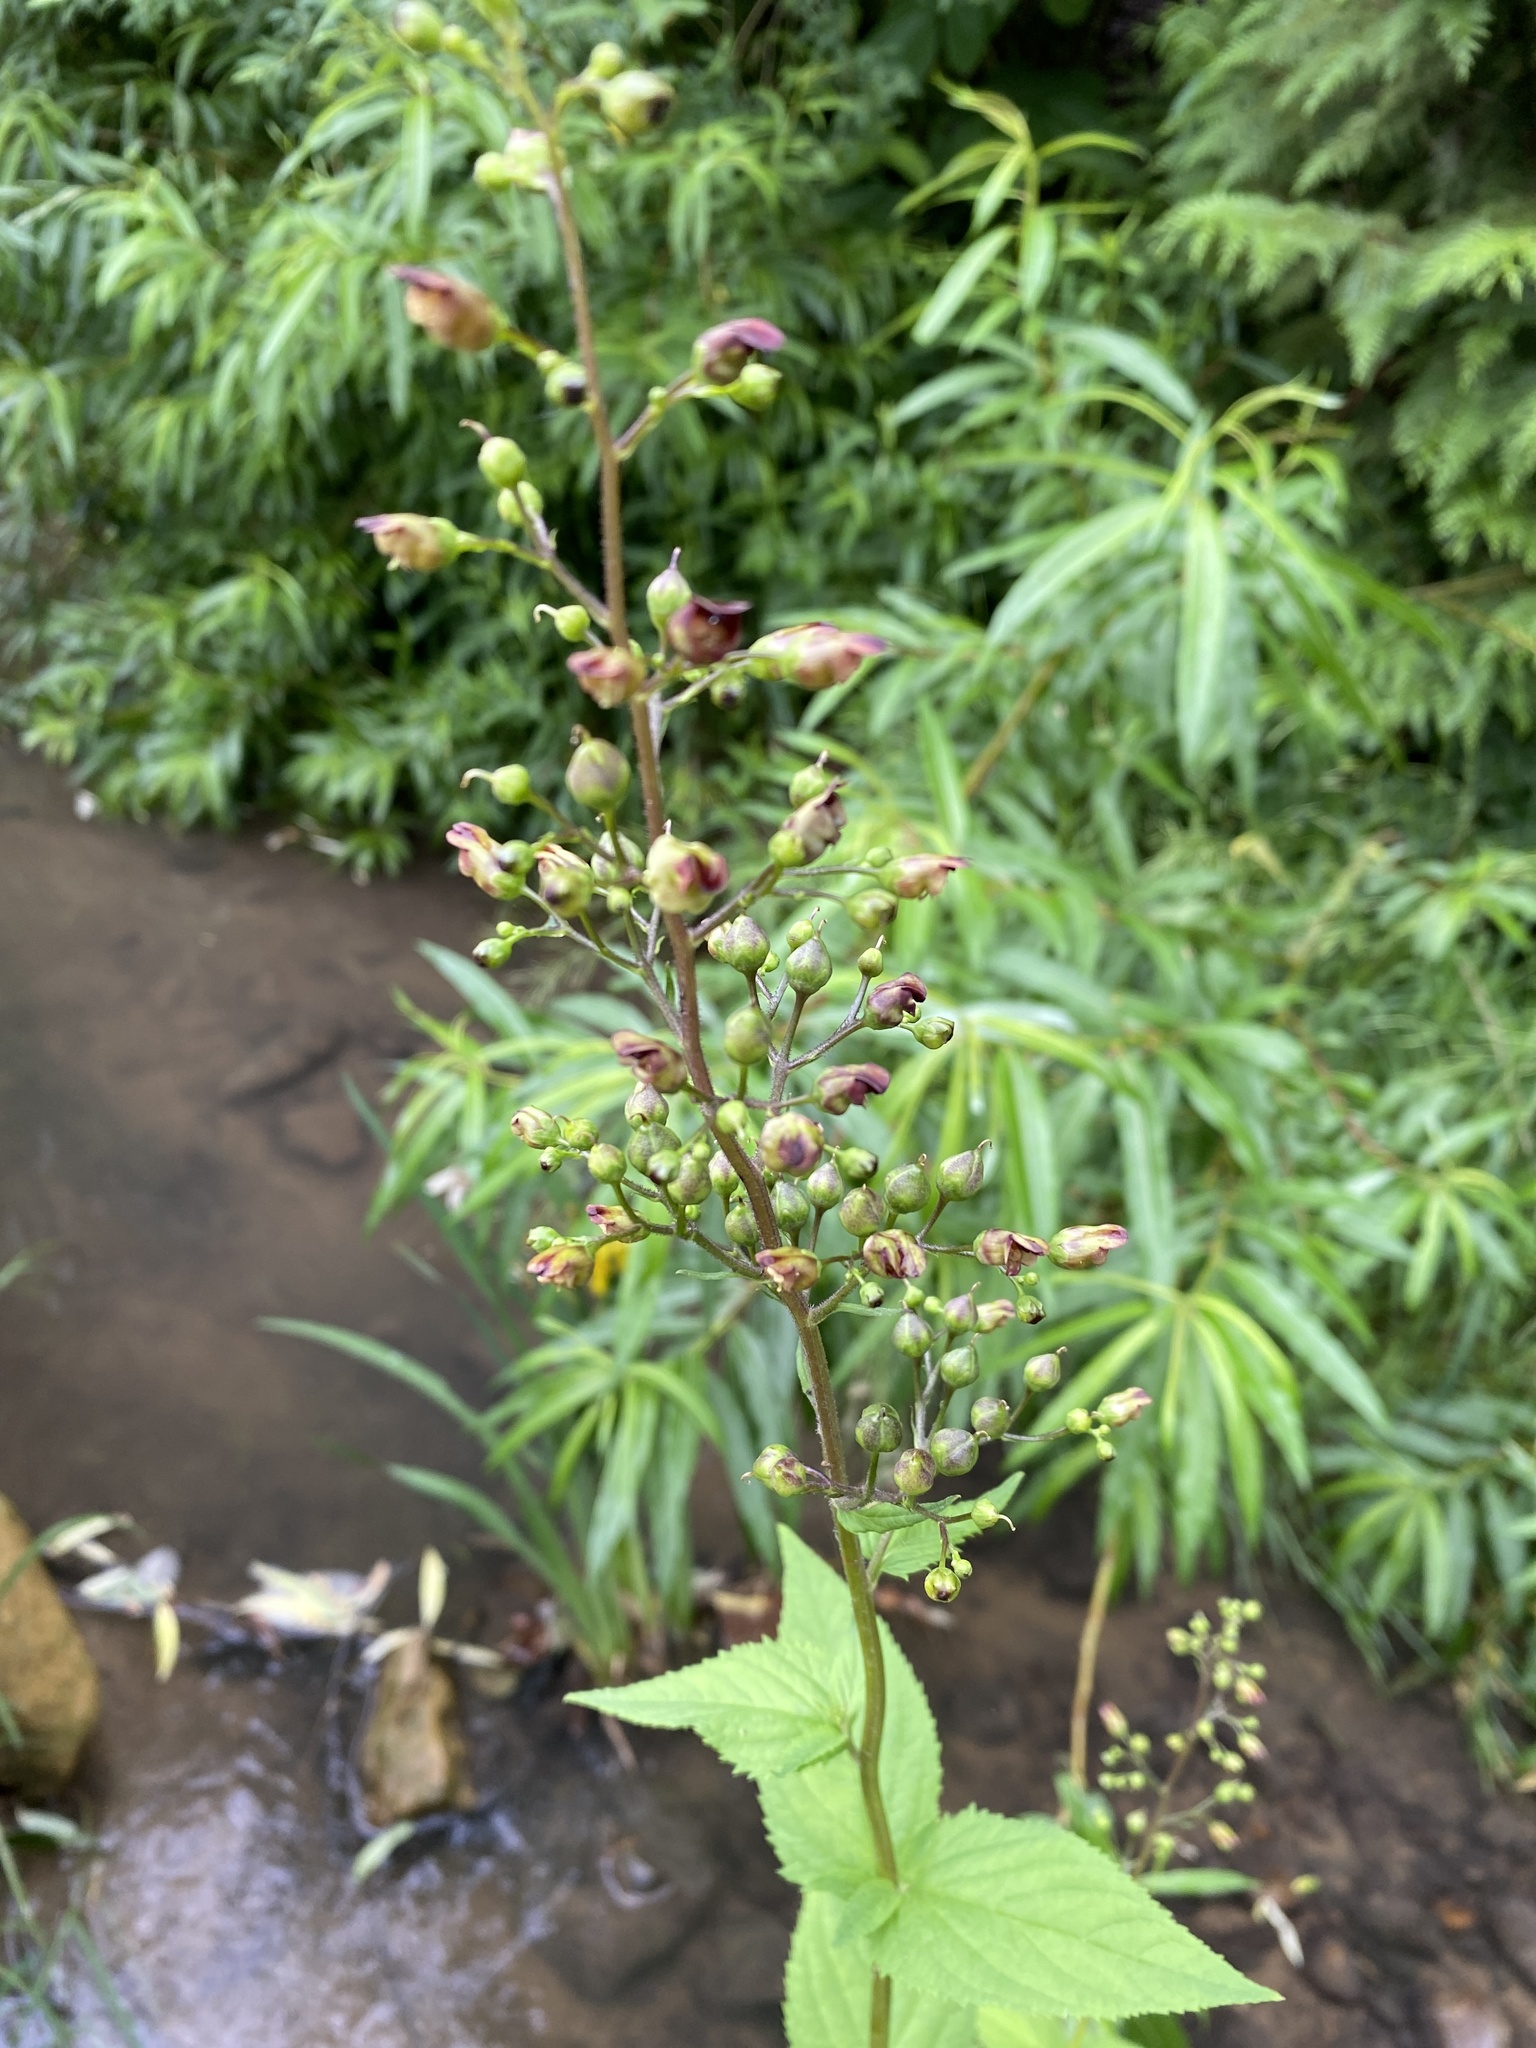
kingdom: Plantae
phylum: Tracheophyta
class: Magnoliopsida
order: Lamiales
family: Scrophulariaceae
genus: Scrophularia
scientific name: Scrophularia nodosa
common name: Common figwort
